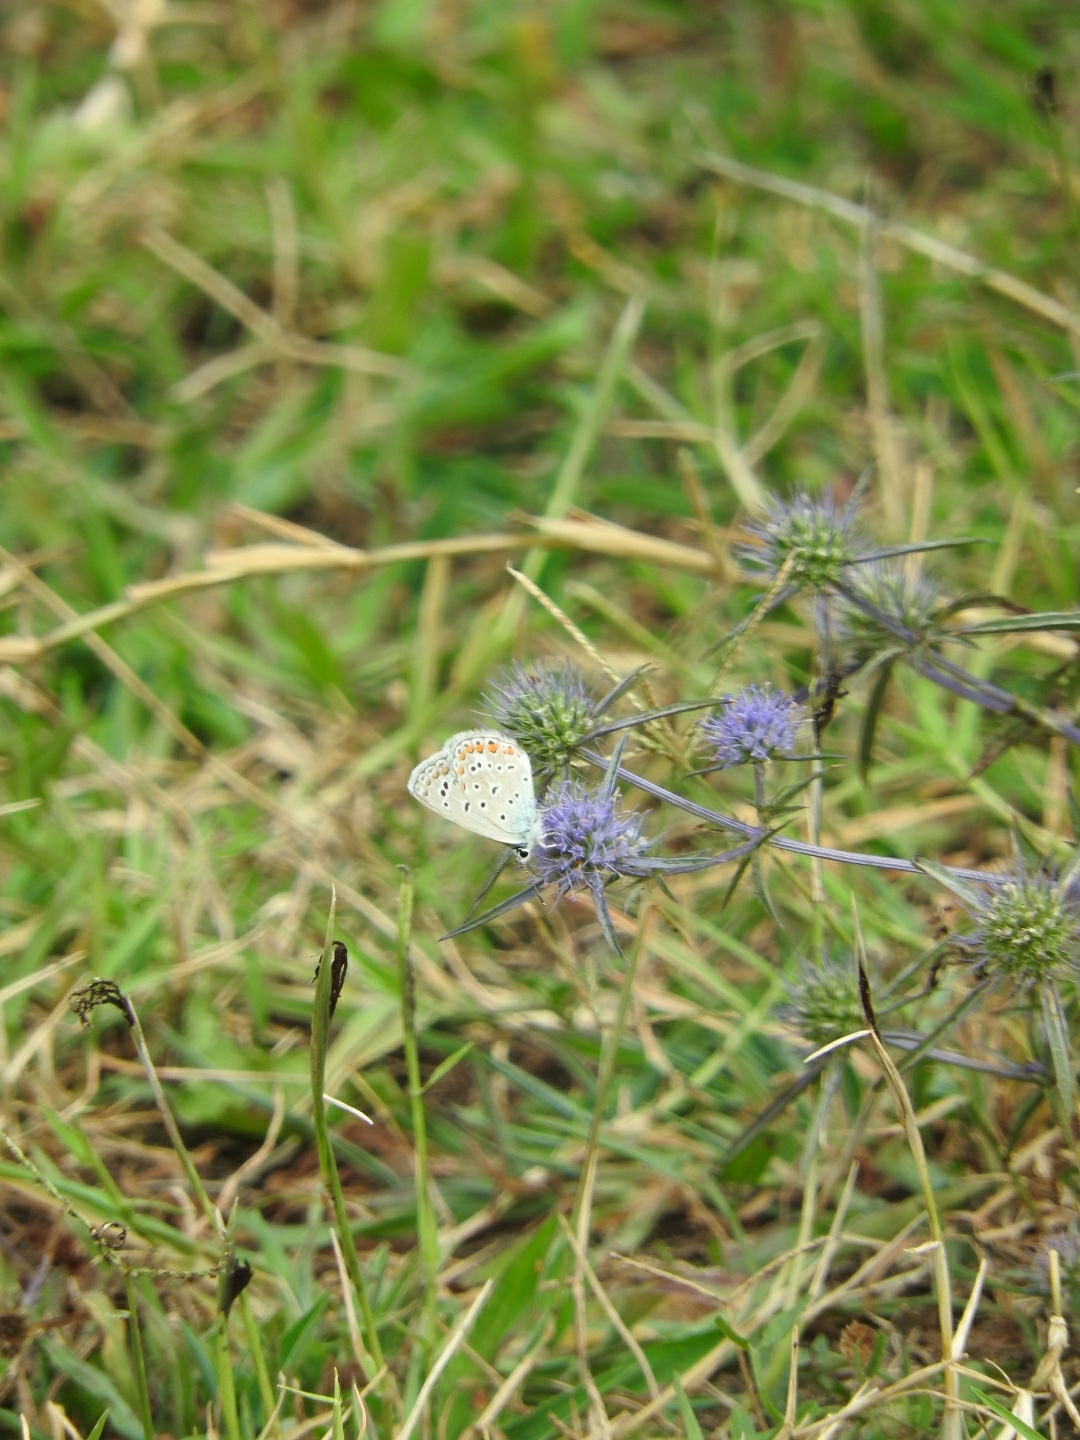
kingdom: Animalia
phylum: Arthropoda
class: Insecta
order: Lepidoptera
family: Lycaenidae
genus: Polyommatus
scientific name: Polyommatus icarus
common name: Common blue
